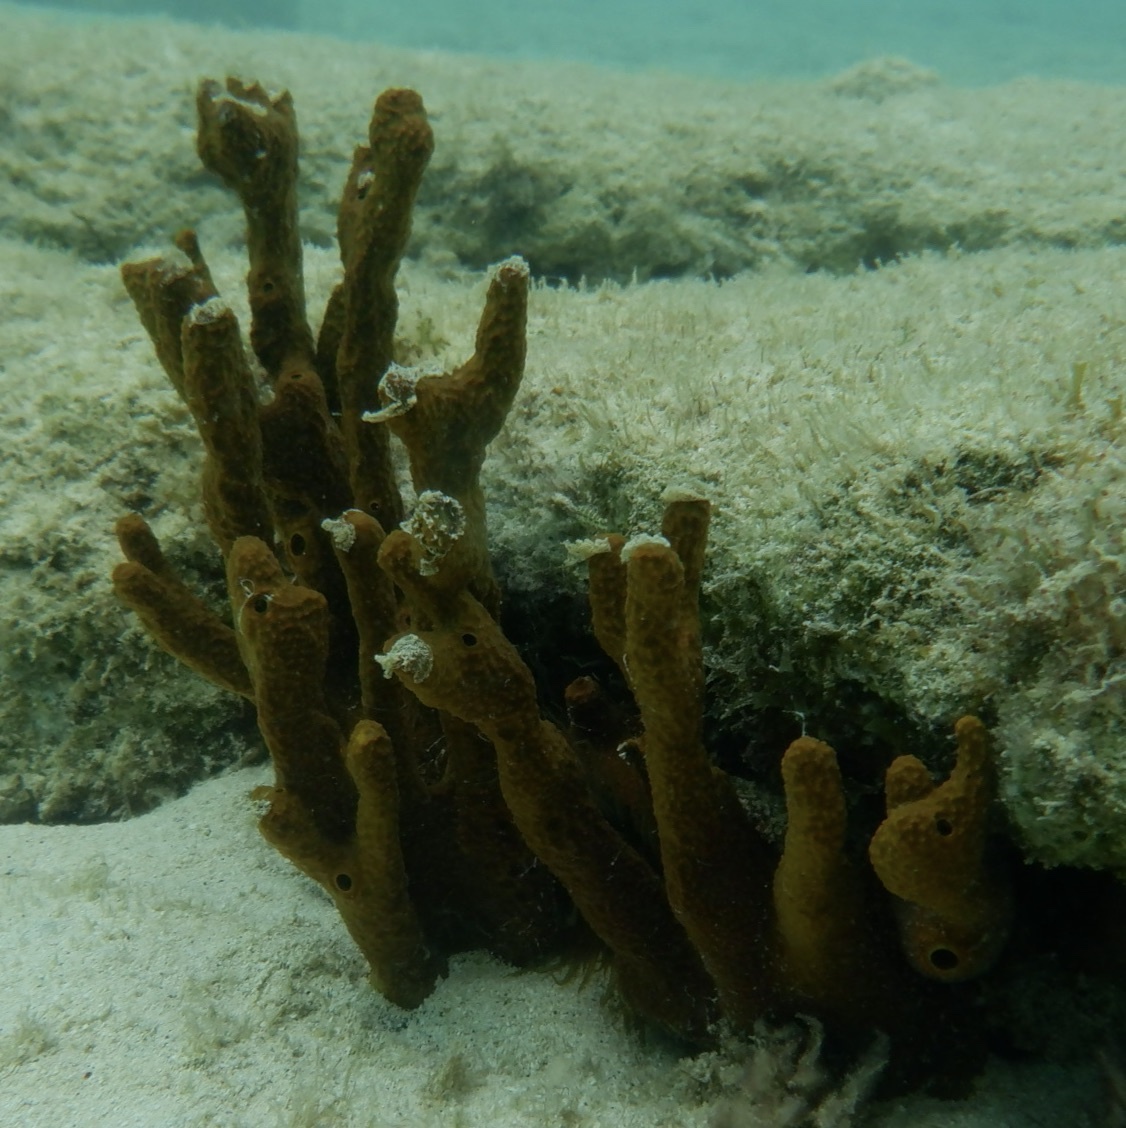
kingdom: Animalia
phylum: Porifera
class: Demospongiae
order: Verongiida
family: Aplysinidae
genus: Aplysina
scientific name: Aplysina fulva
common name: Scattered pore rope sponge
